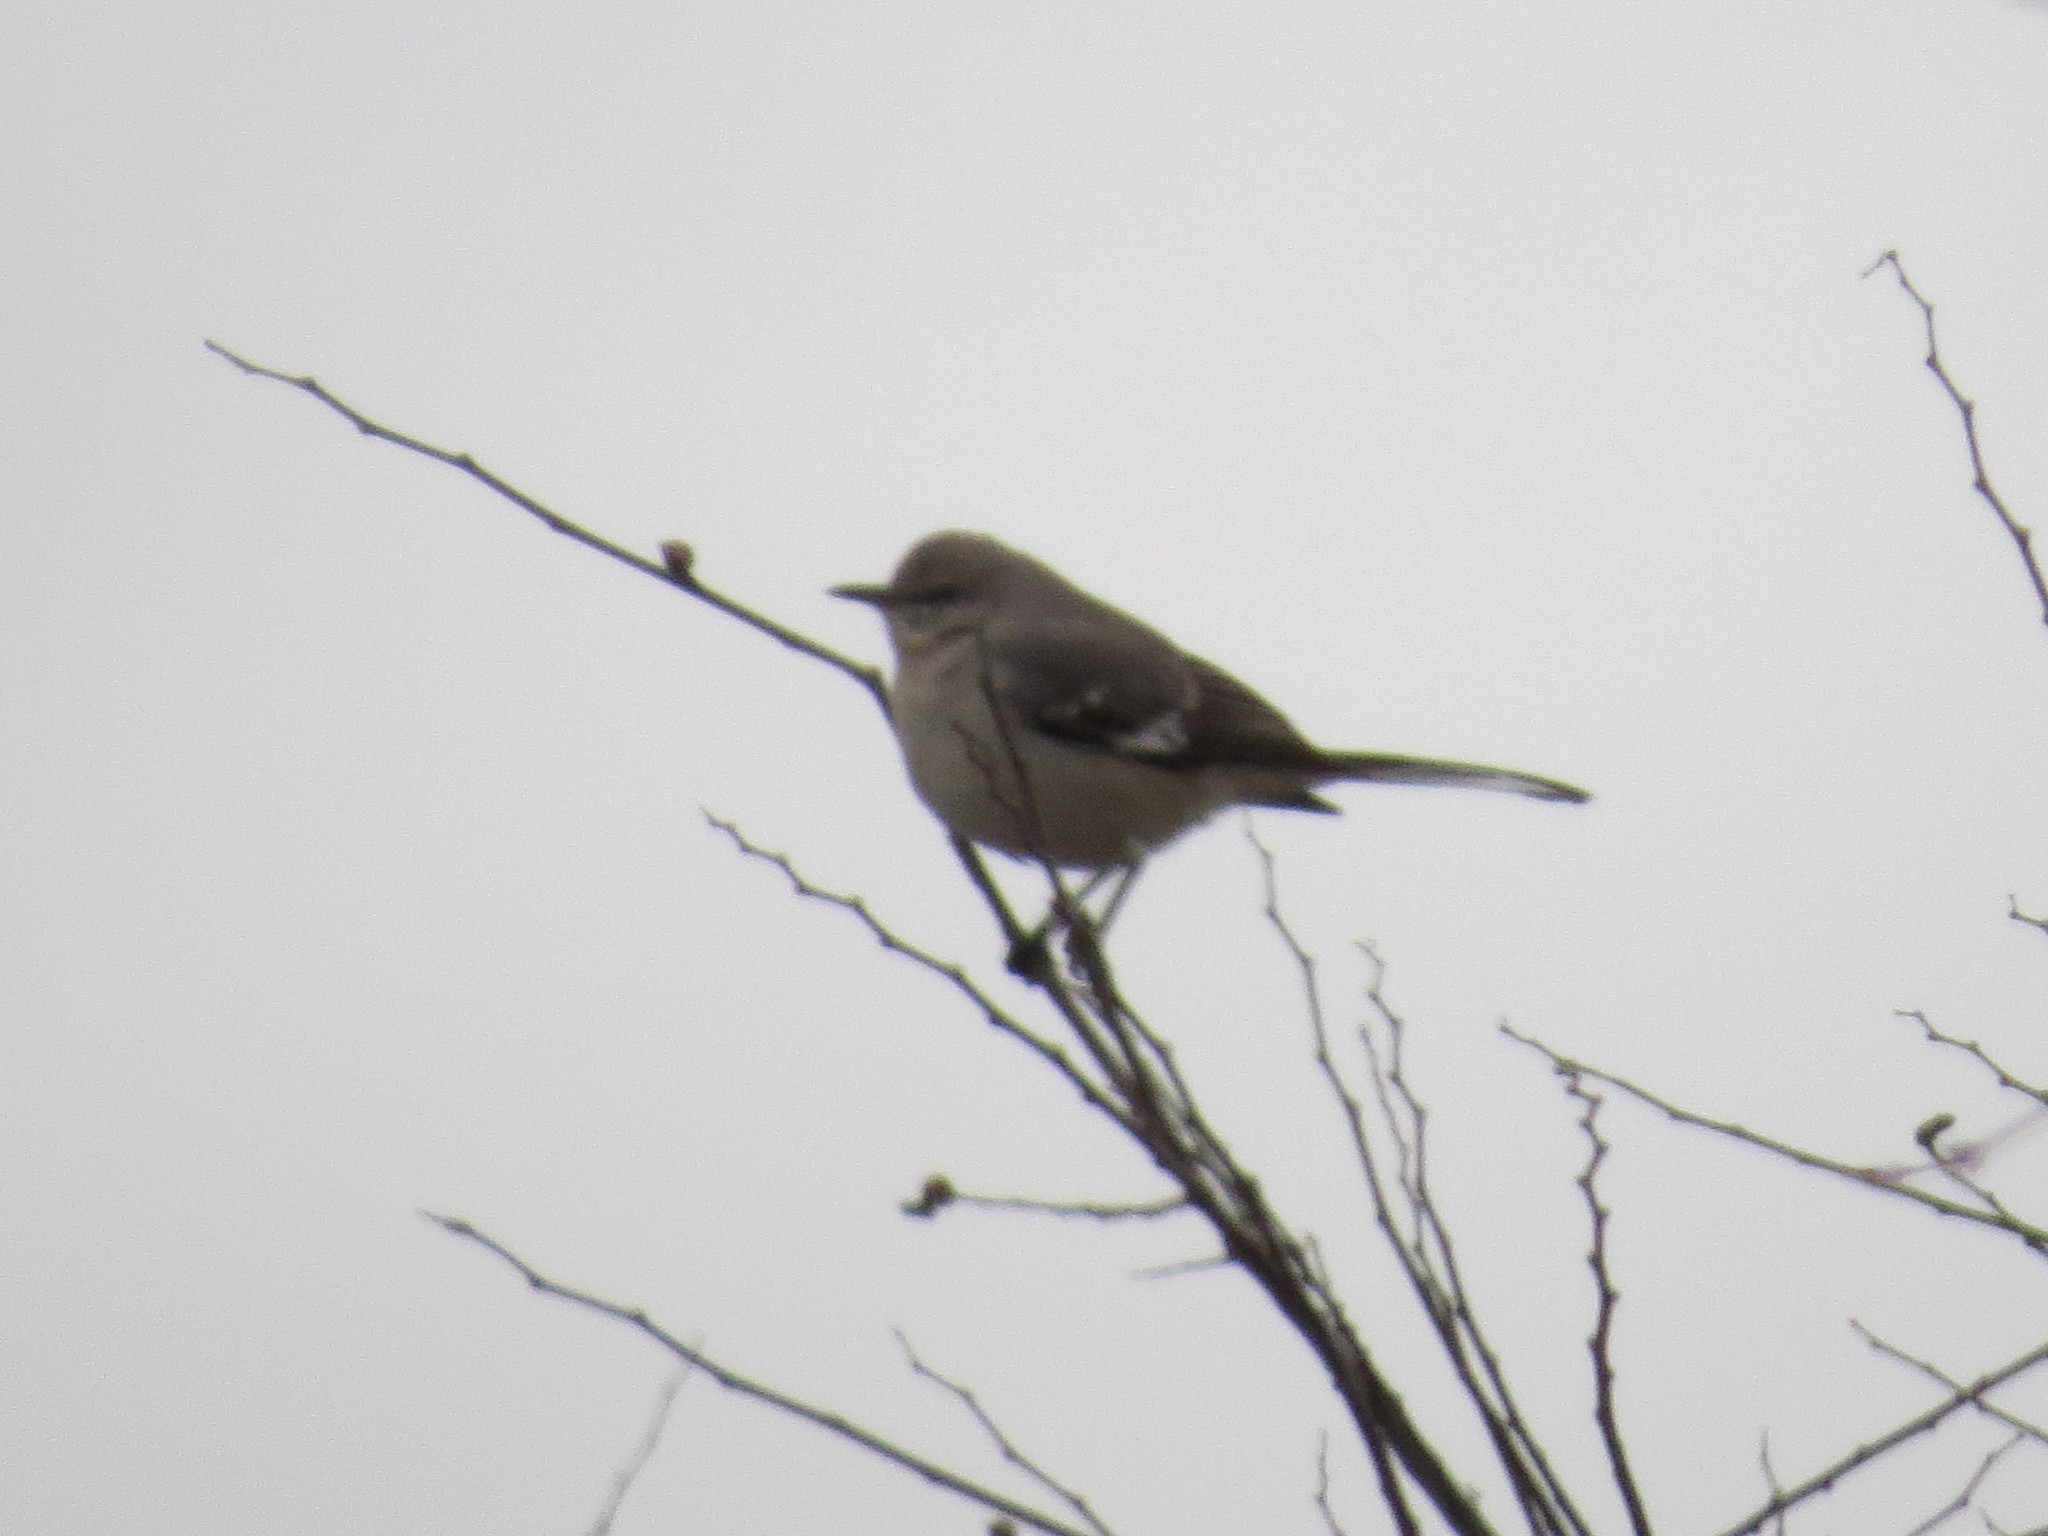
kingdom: Animalia
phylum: Chordata
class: Aves
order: Passeriformes
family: Mimidae
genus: Mimus
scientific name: Mimus polyglottos
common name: Northern mockingbird
